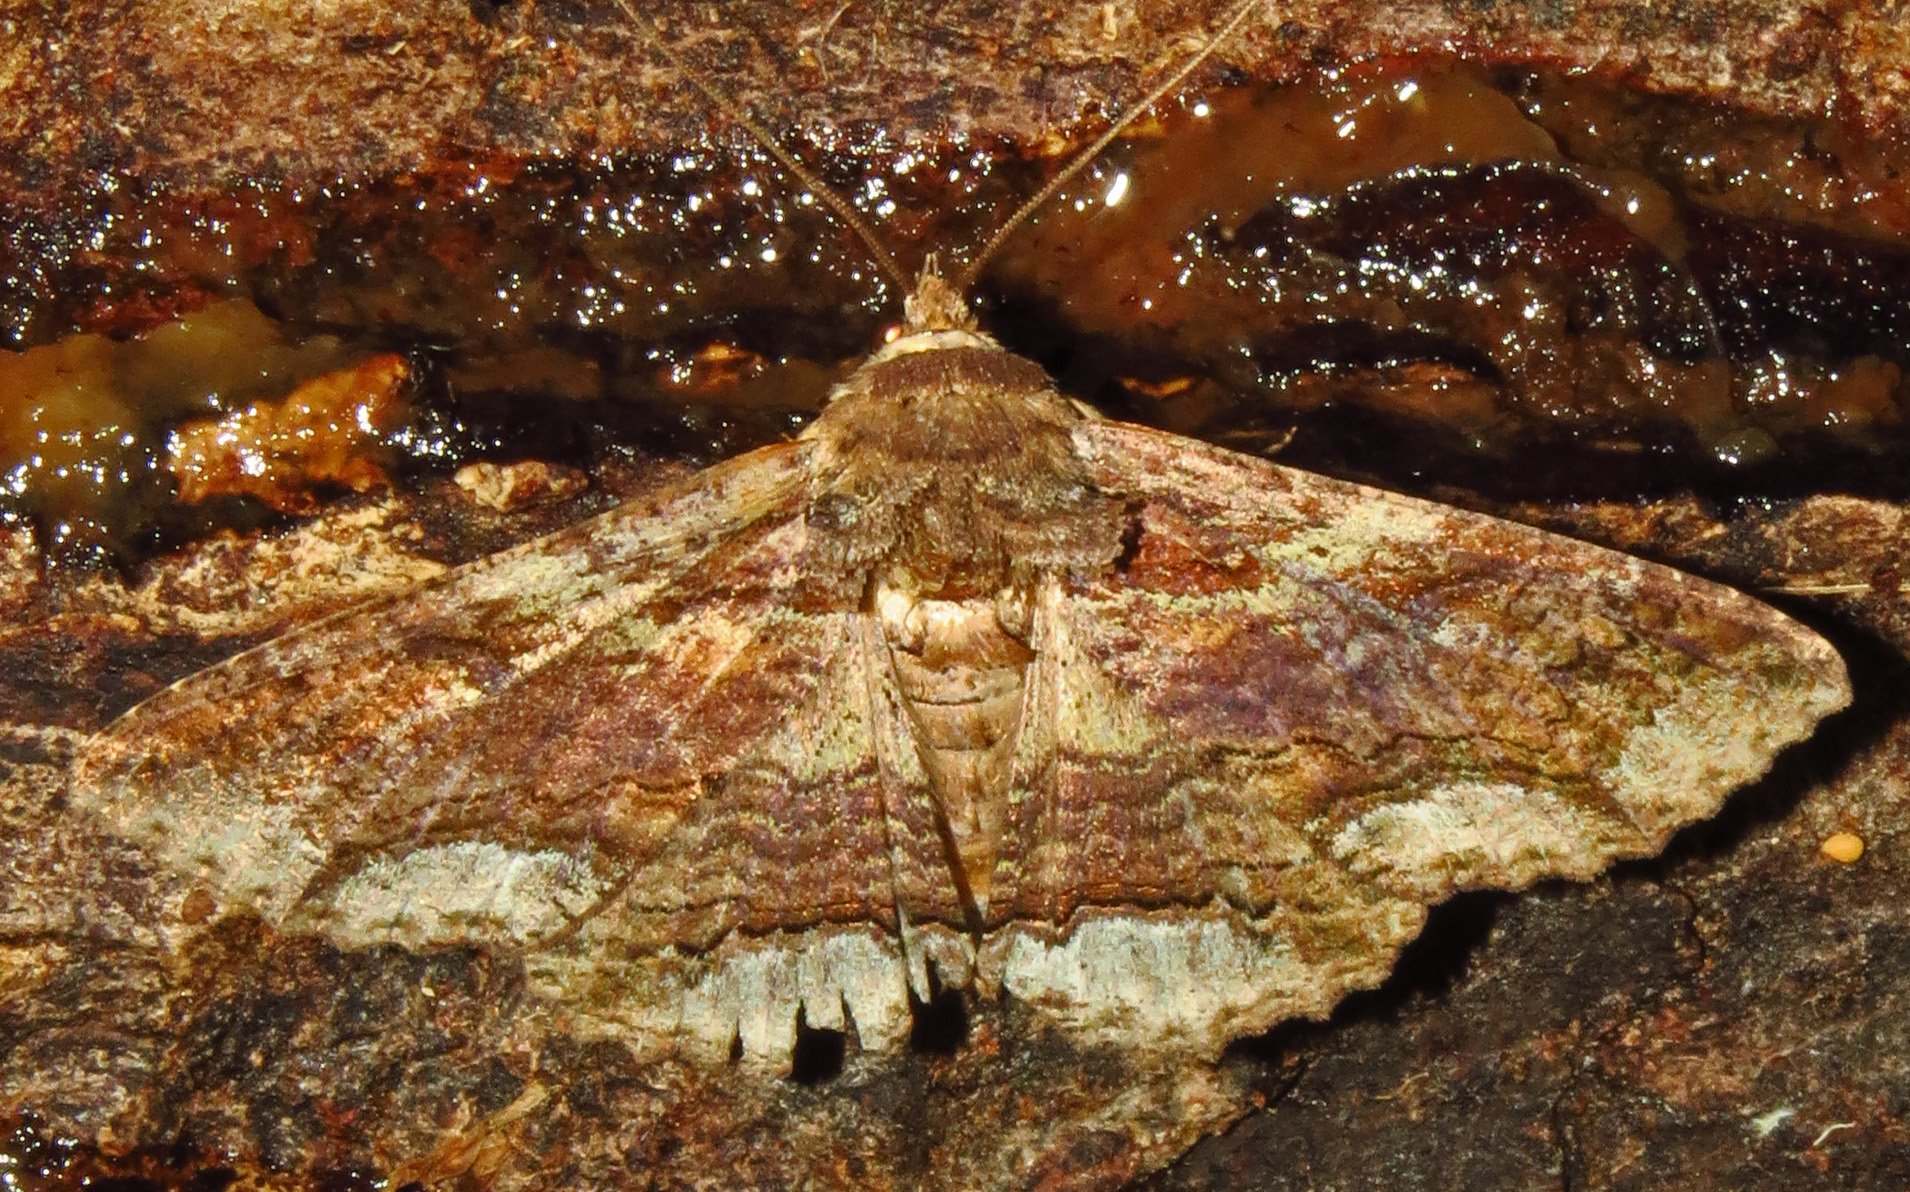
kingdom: Animalia
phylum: Arthropoda
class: Insecta
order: Lepidoptera
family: Erebidae
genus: Zale
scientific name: Zale lunata
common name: Lunate zale moth
